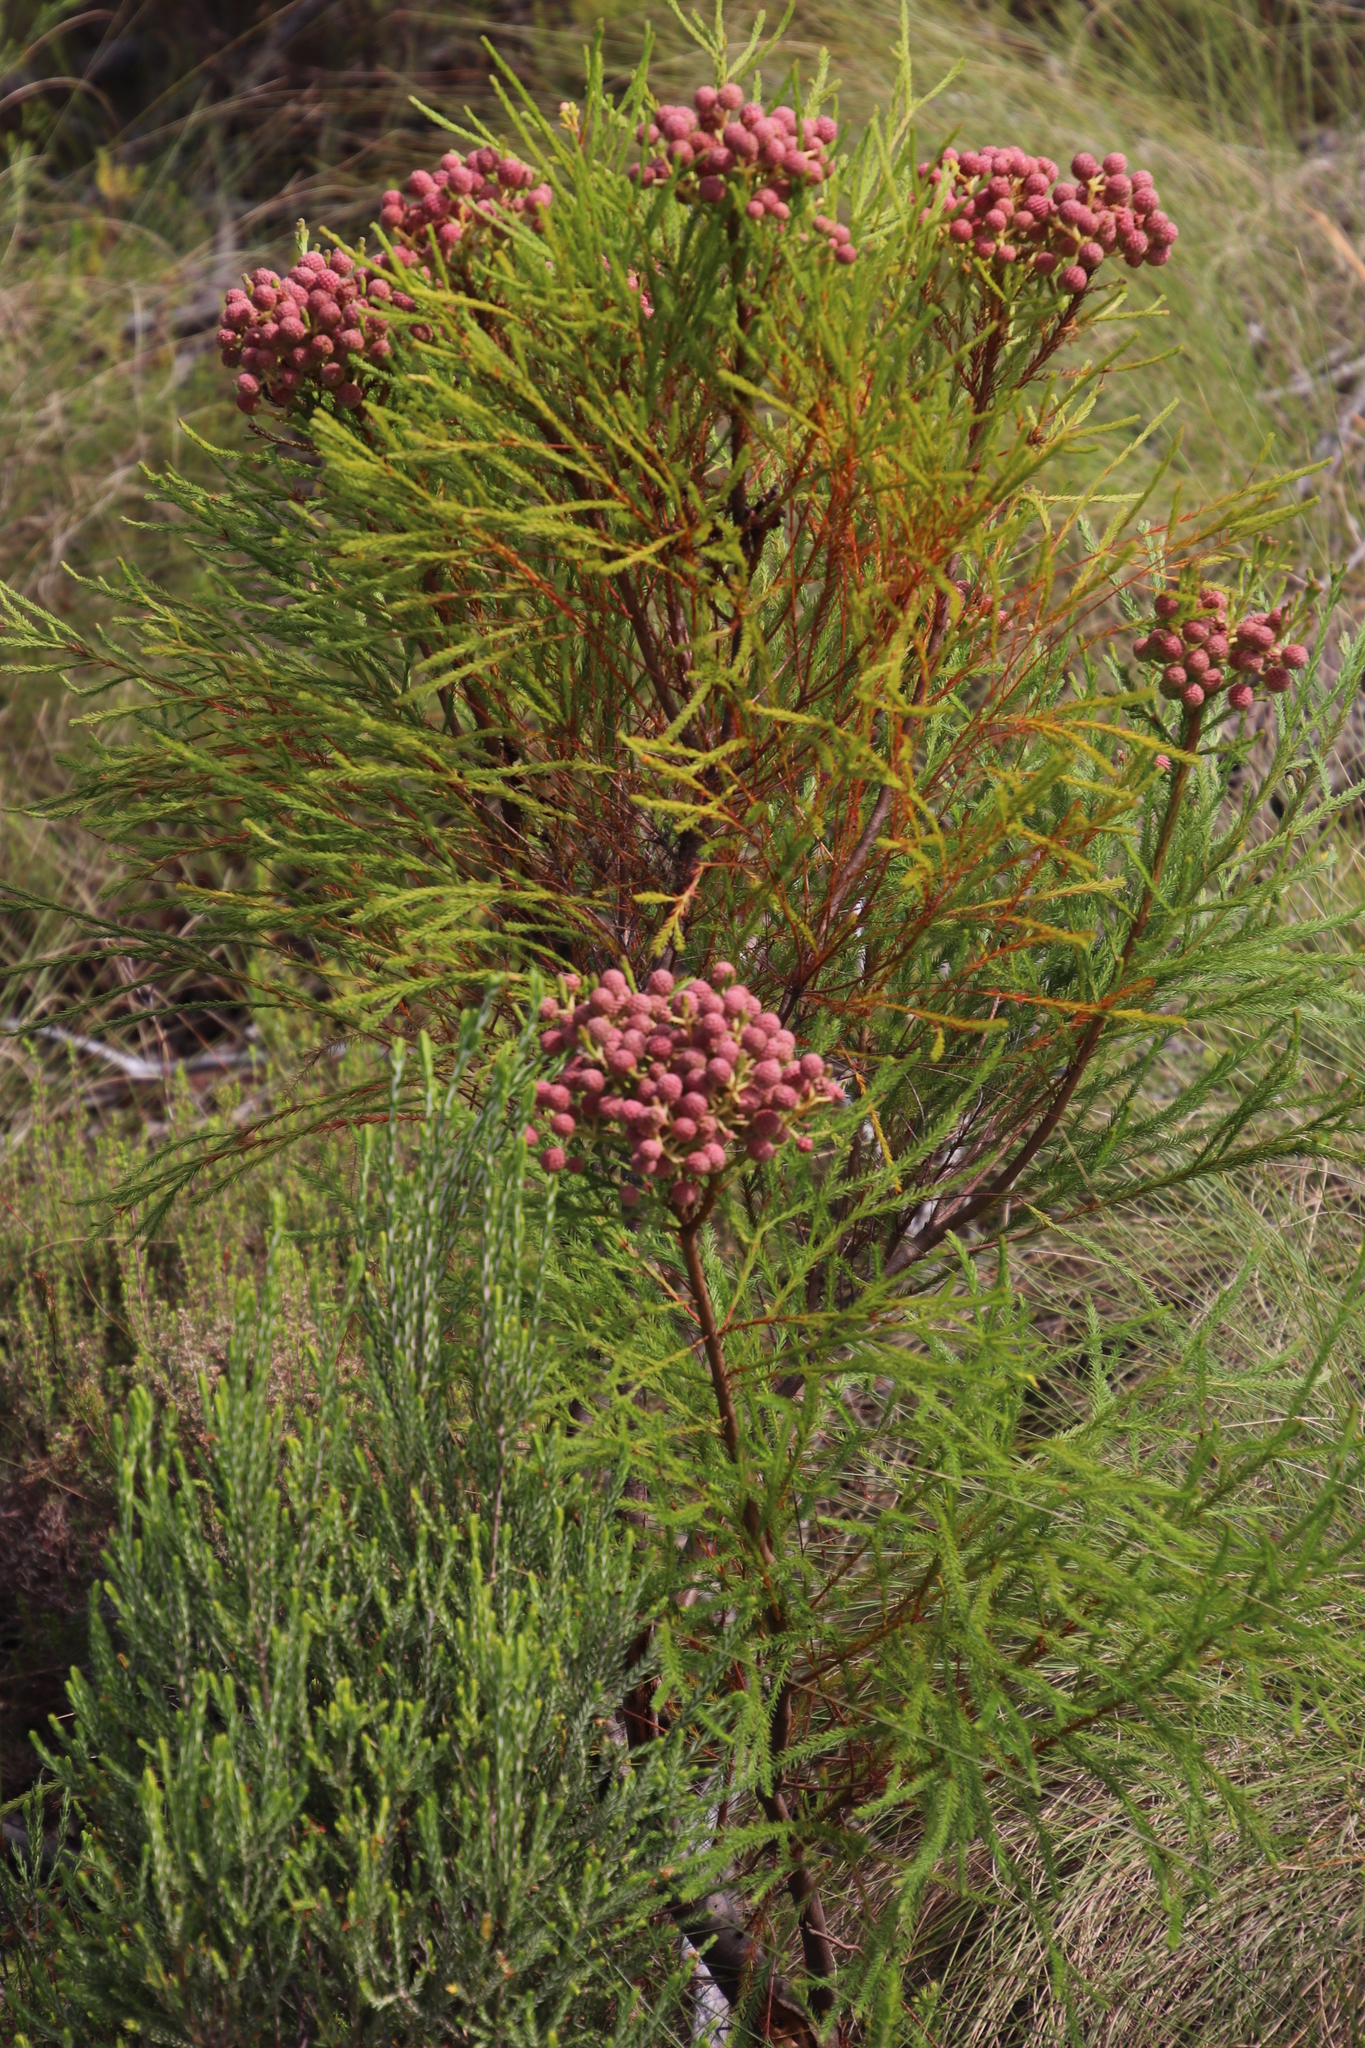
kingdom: Plantae
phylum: Tracheophyta
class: Magnoliopsida
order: Bruniales
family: Bruniaceae
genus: Berzelia
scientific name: Berzelia lanuginosa
